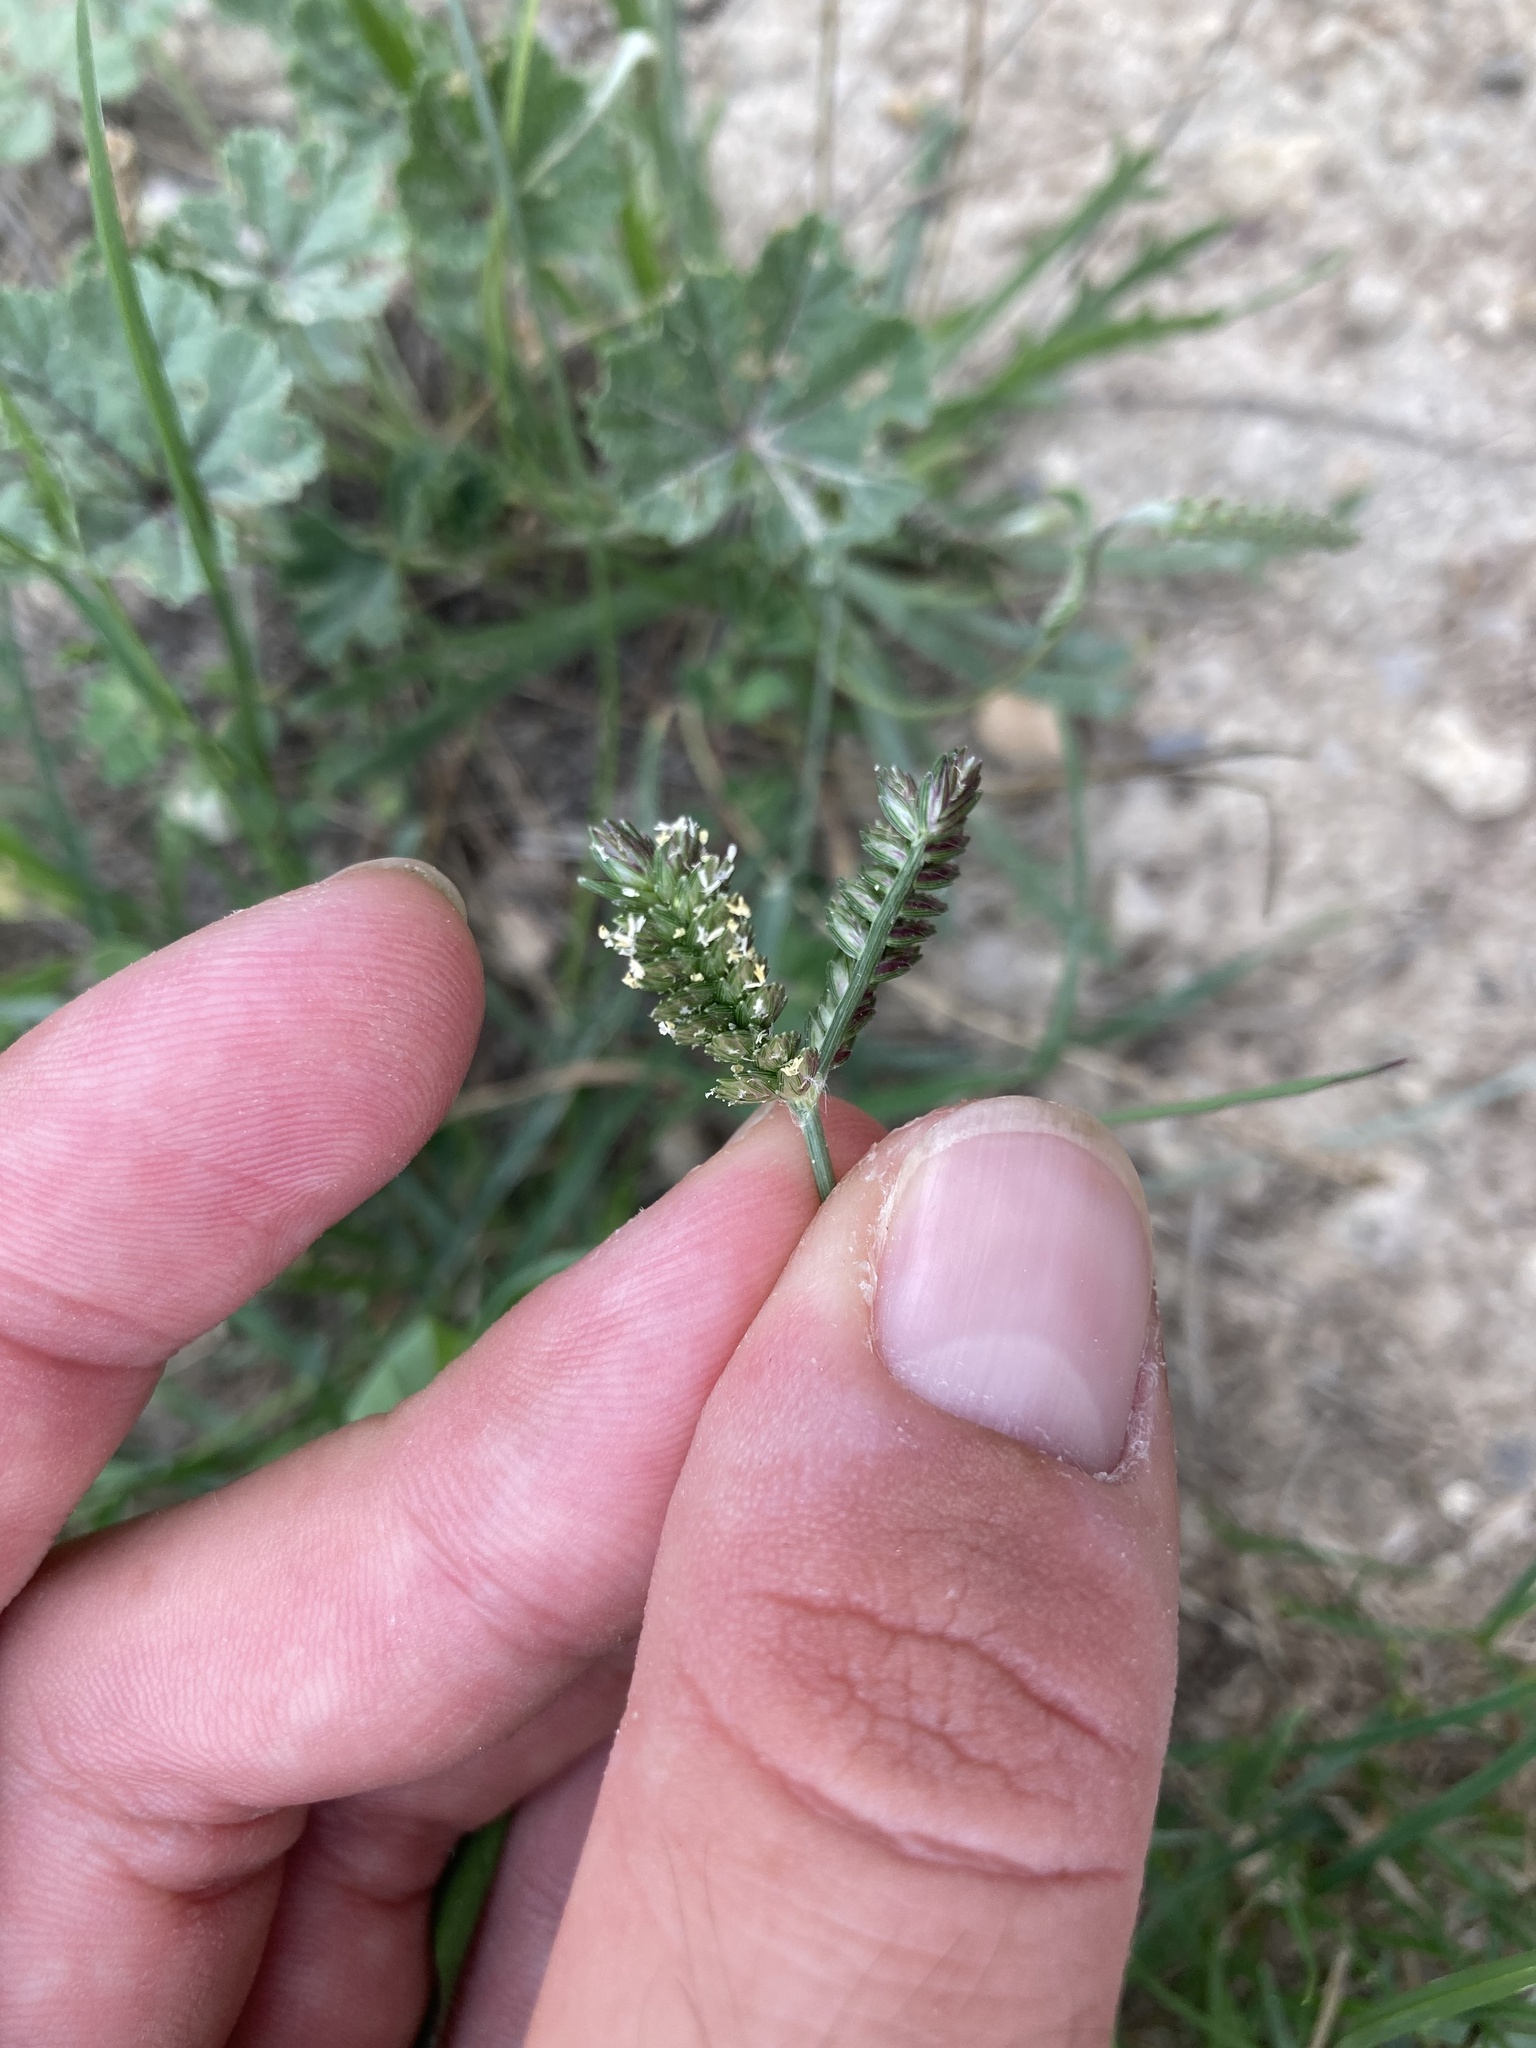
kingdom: Plantae
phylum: Tracheophyta
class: Liliopsida
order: Poales
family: Poaceae
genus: Eleusine
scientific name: Eleusine tristachya
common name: American yard-grass
